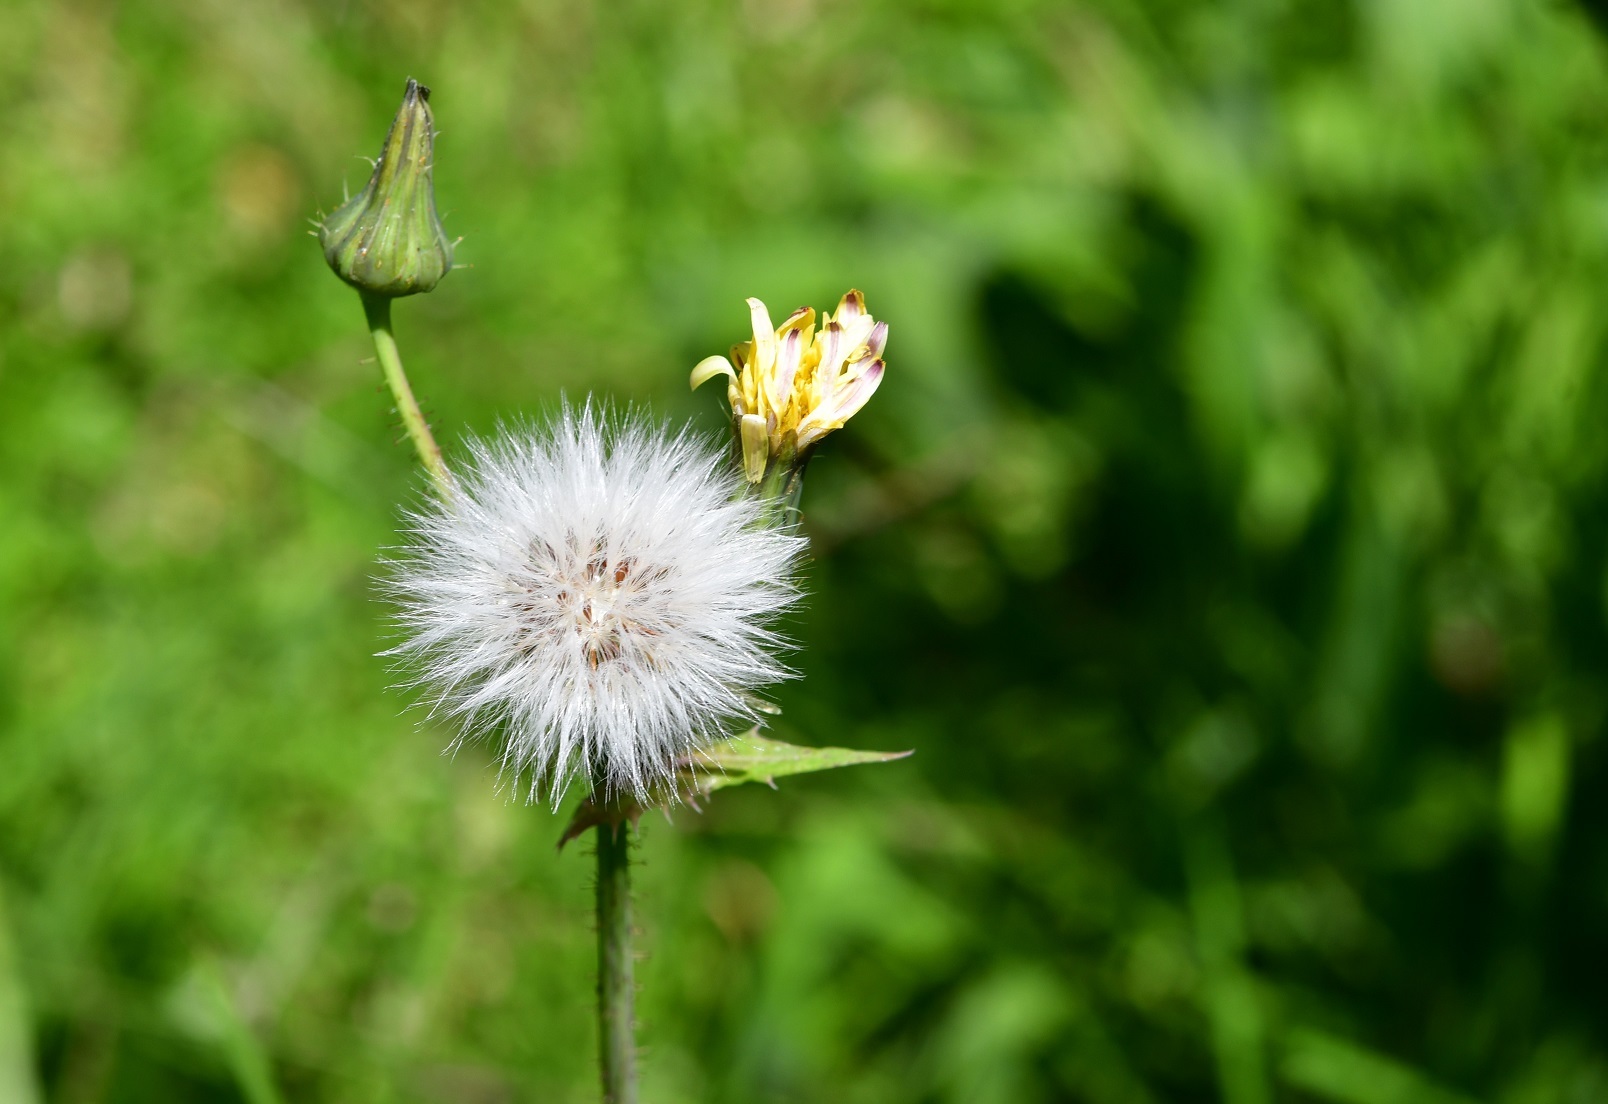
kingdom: Plantae
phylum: Tracheophyta
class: Magnoliopsida
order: Asterales
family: Asteraceae
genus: Sonchus
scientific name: Sonchus oleraceus
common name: Common sowthistle
